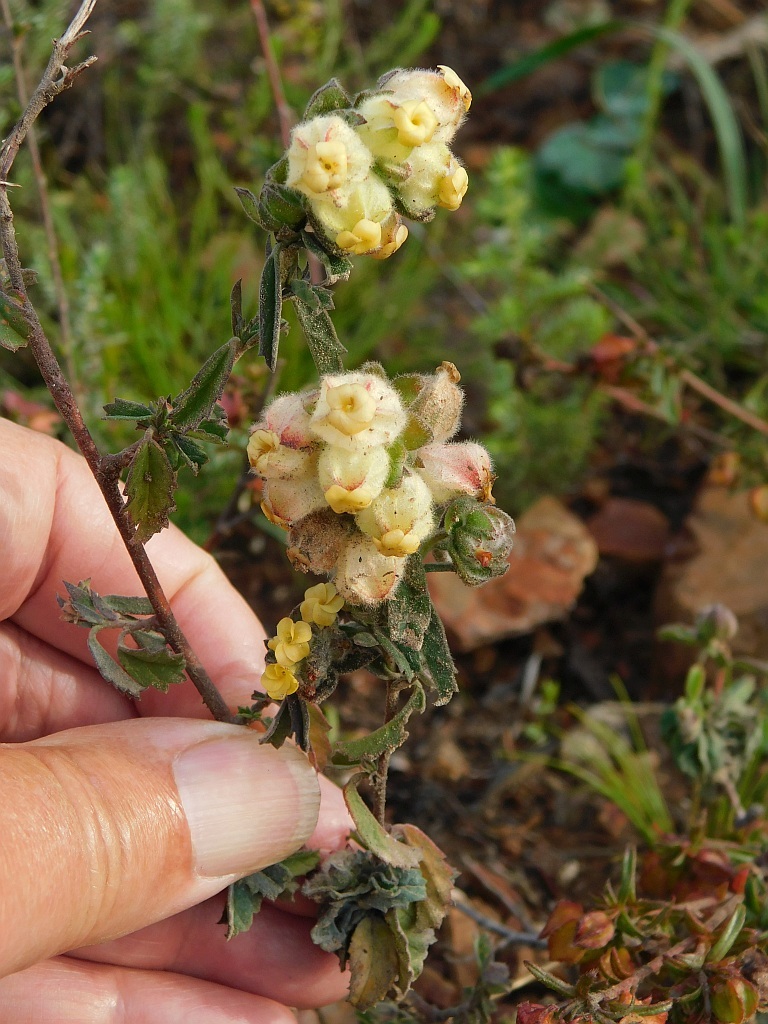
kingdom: Plantae
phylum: Tracheophyta
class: Magnoliopsida
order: Malvales
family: Malvaceae
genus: Hermannia
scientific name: Hermannia hyssopifolia
